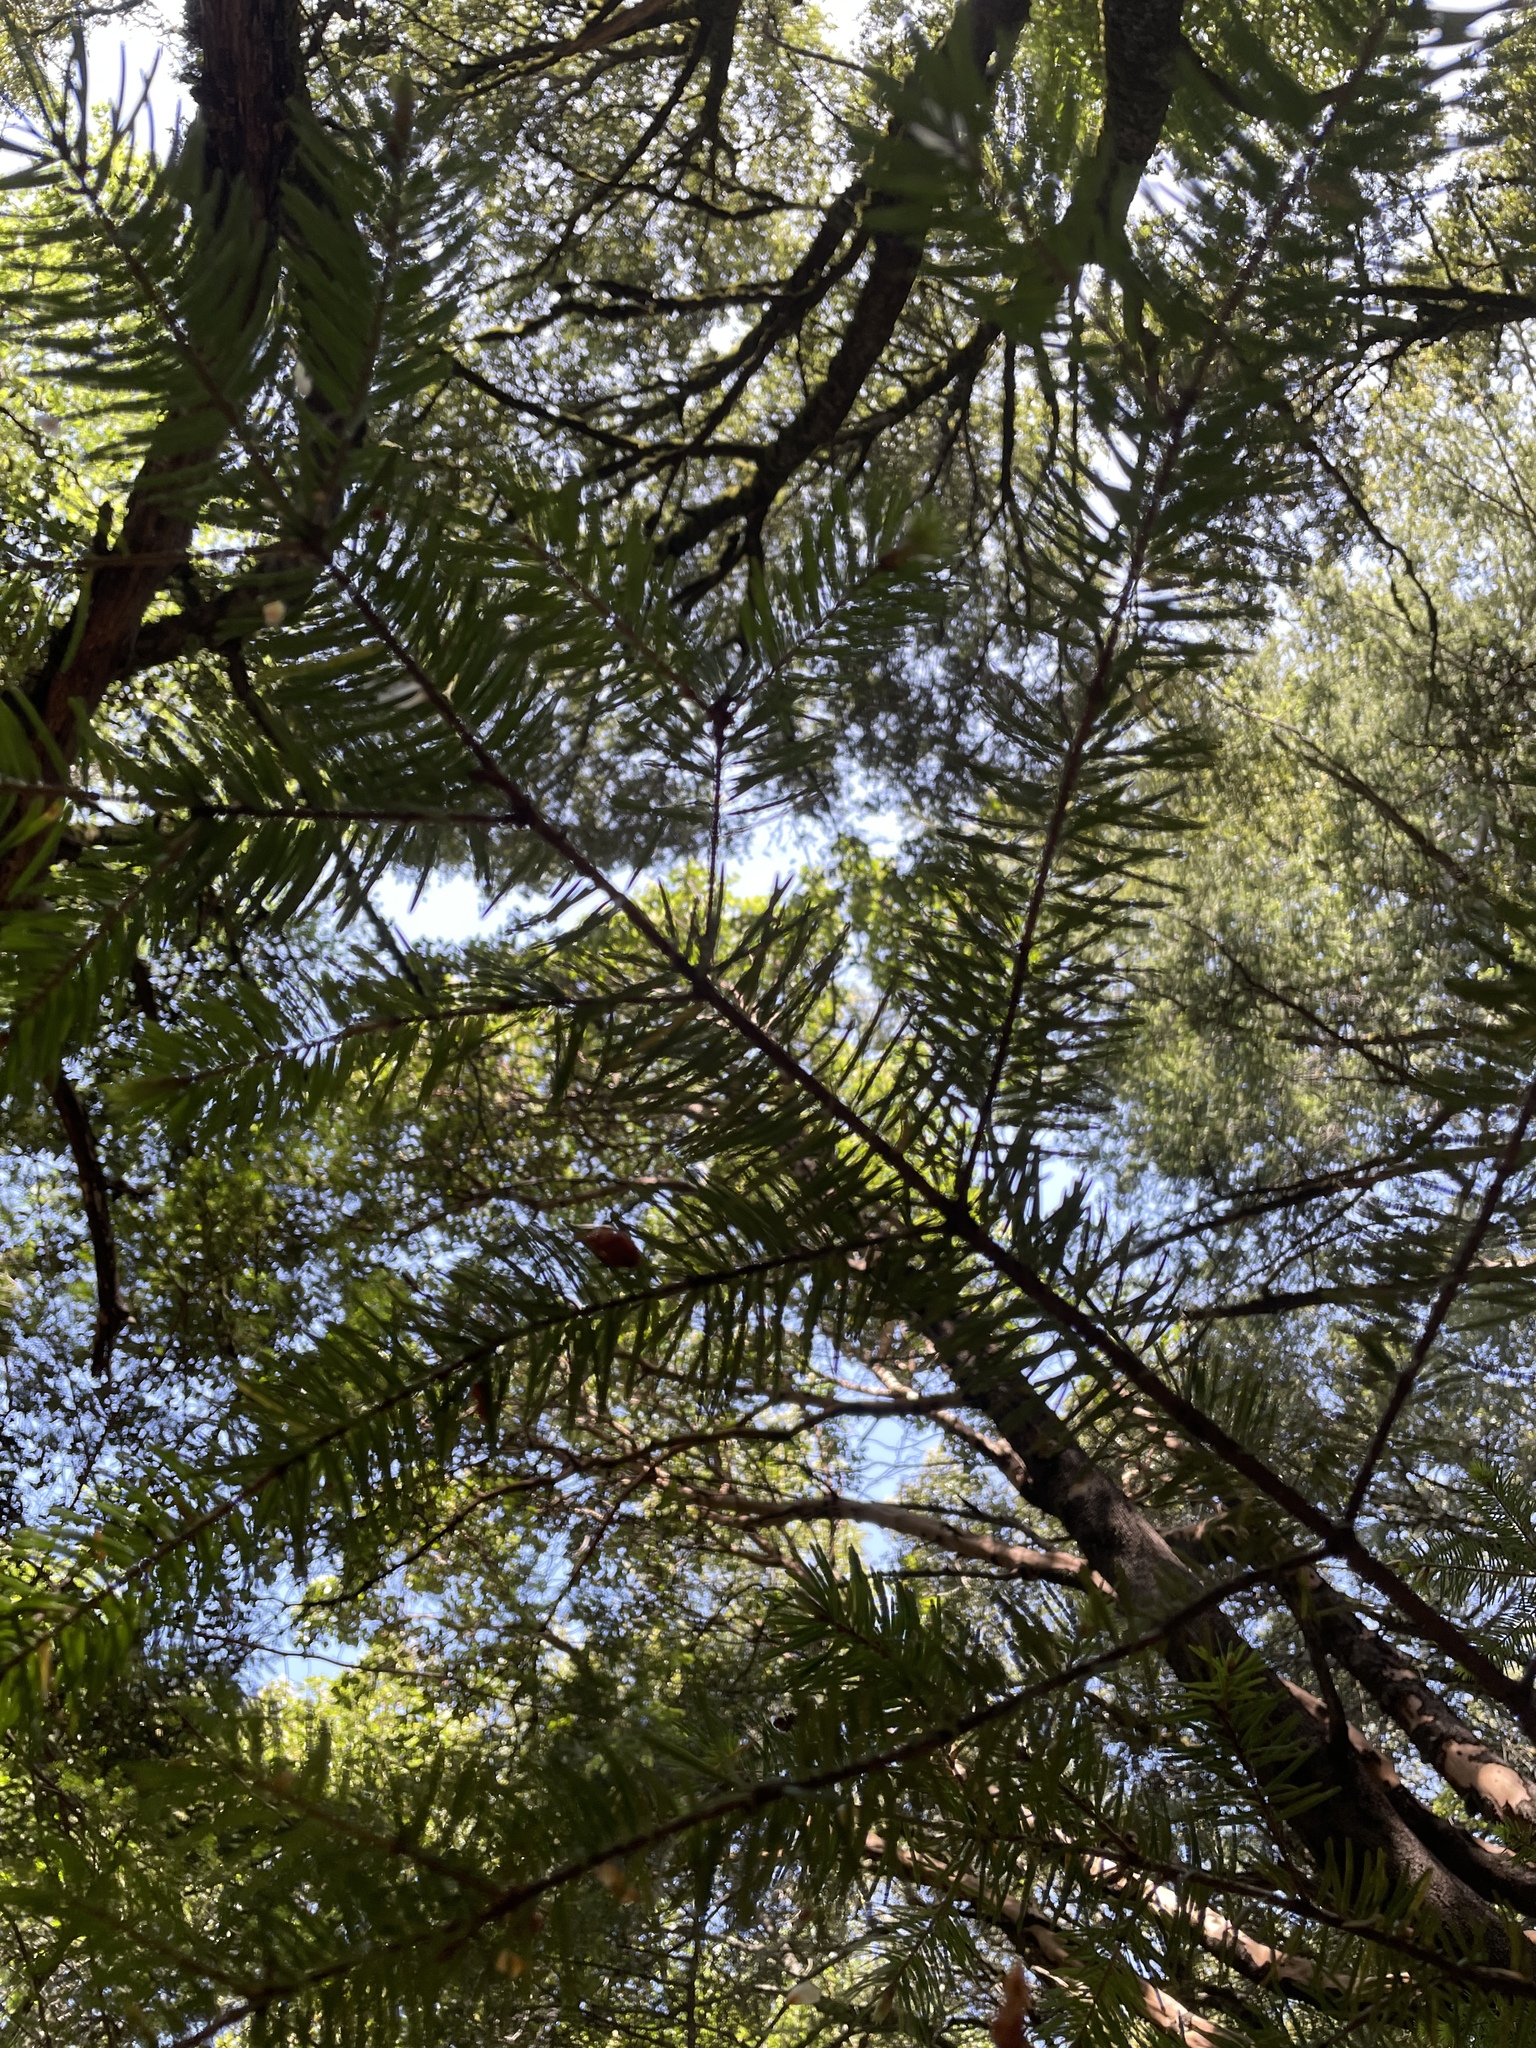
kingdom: Plantae
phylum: Tracheophyta
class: Pinopsida
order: Pinales
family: Pinaceae
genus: Pseudotsuga
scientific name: Pseudotsuga menziesii
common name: Douglas fir
